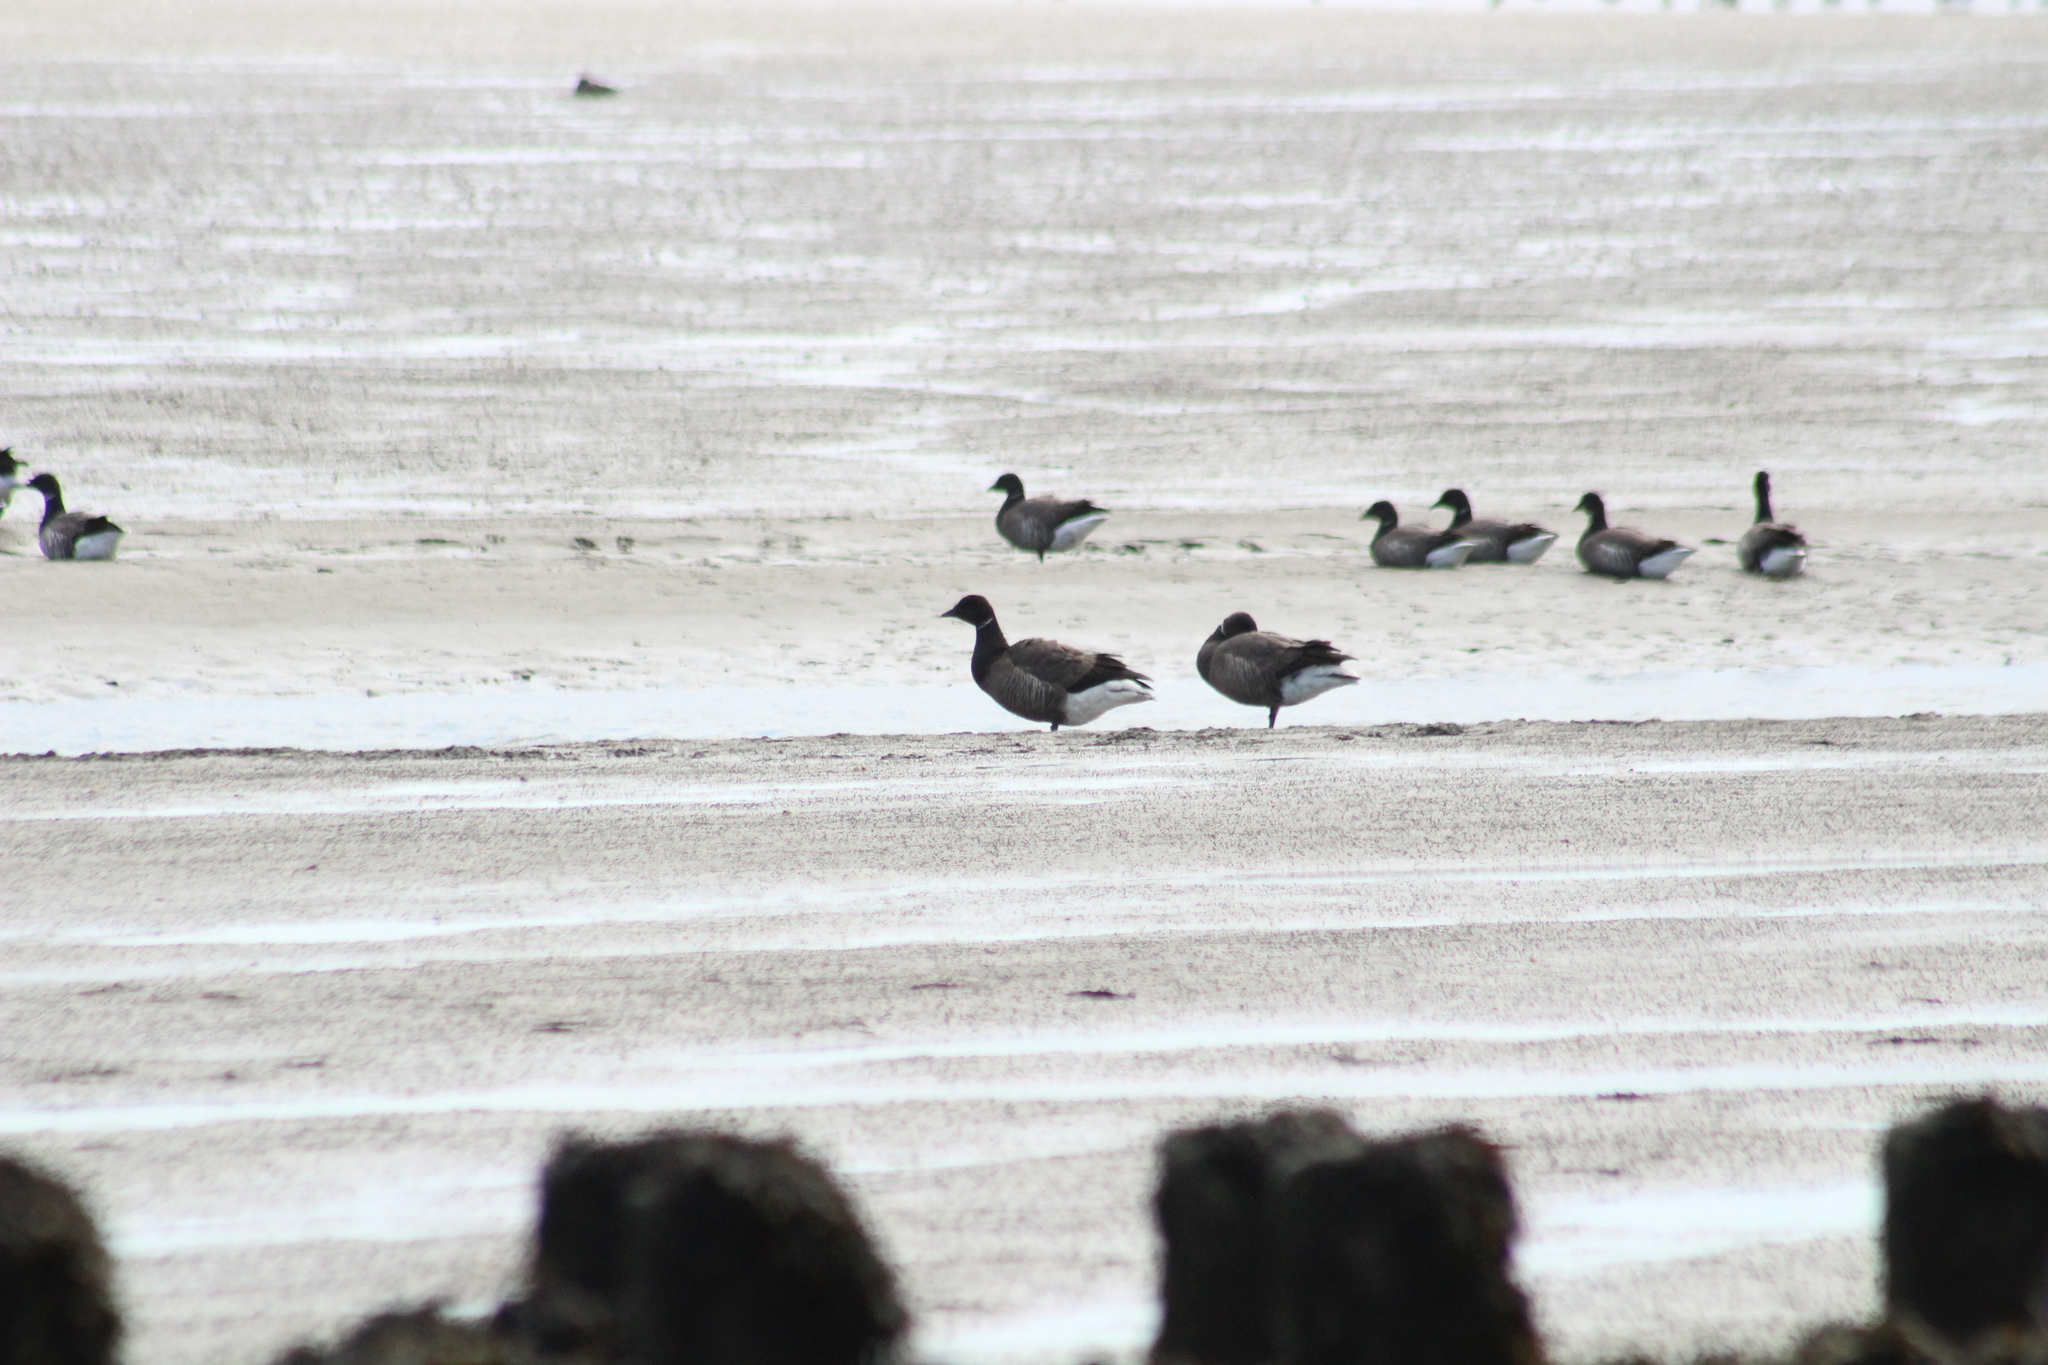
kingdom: Animalia
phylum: Chordata
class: Aves
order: Anseriformes
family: Anatidae
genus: Branta
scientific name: Branta bernicla
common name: Brant goose
